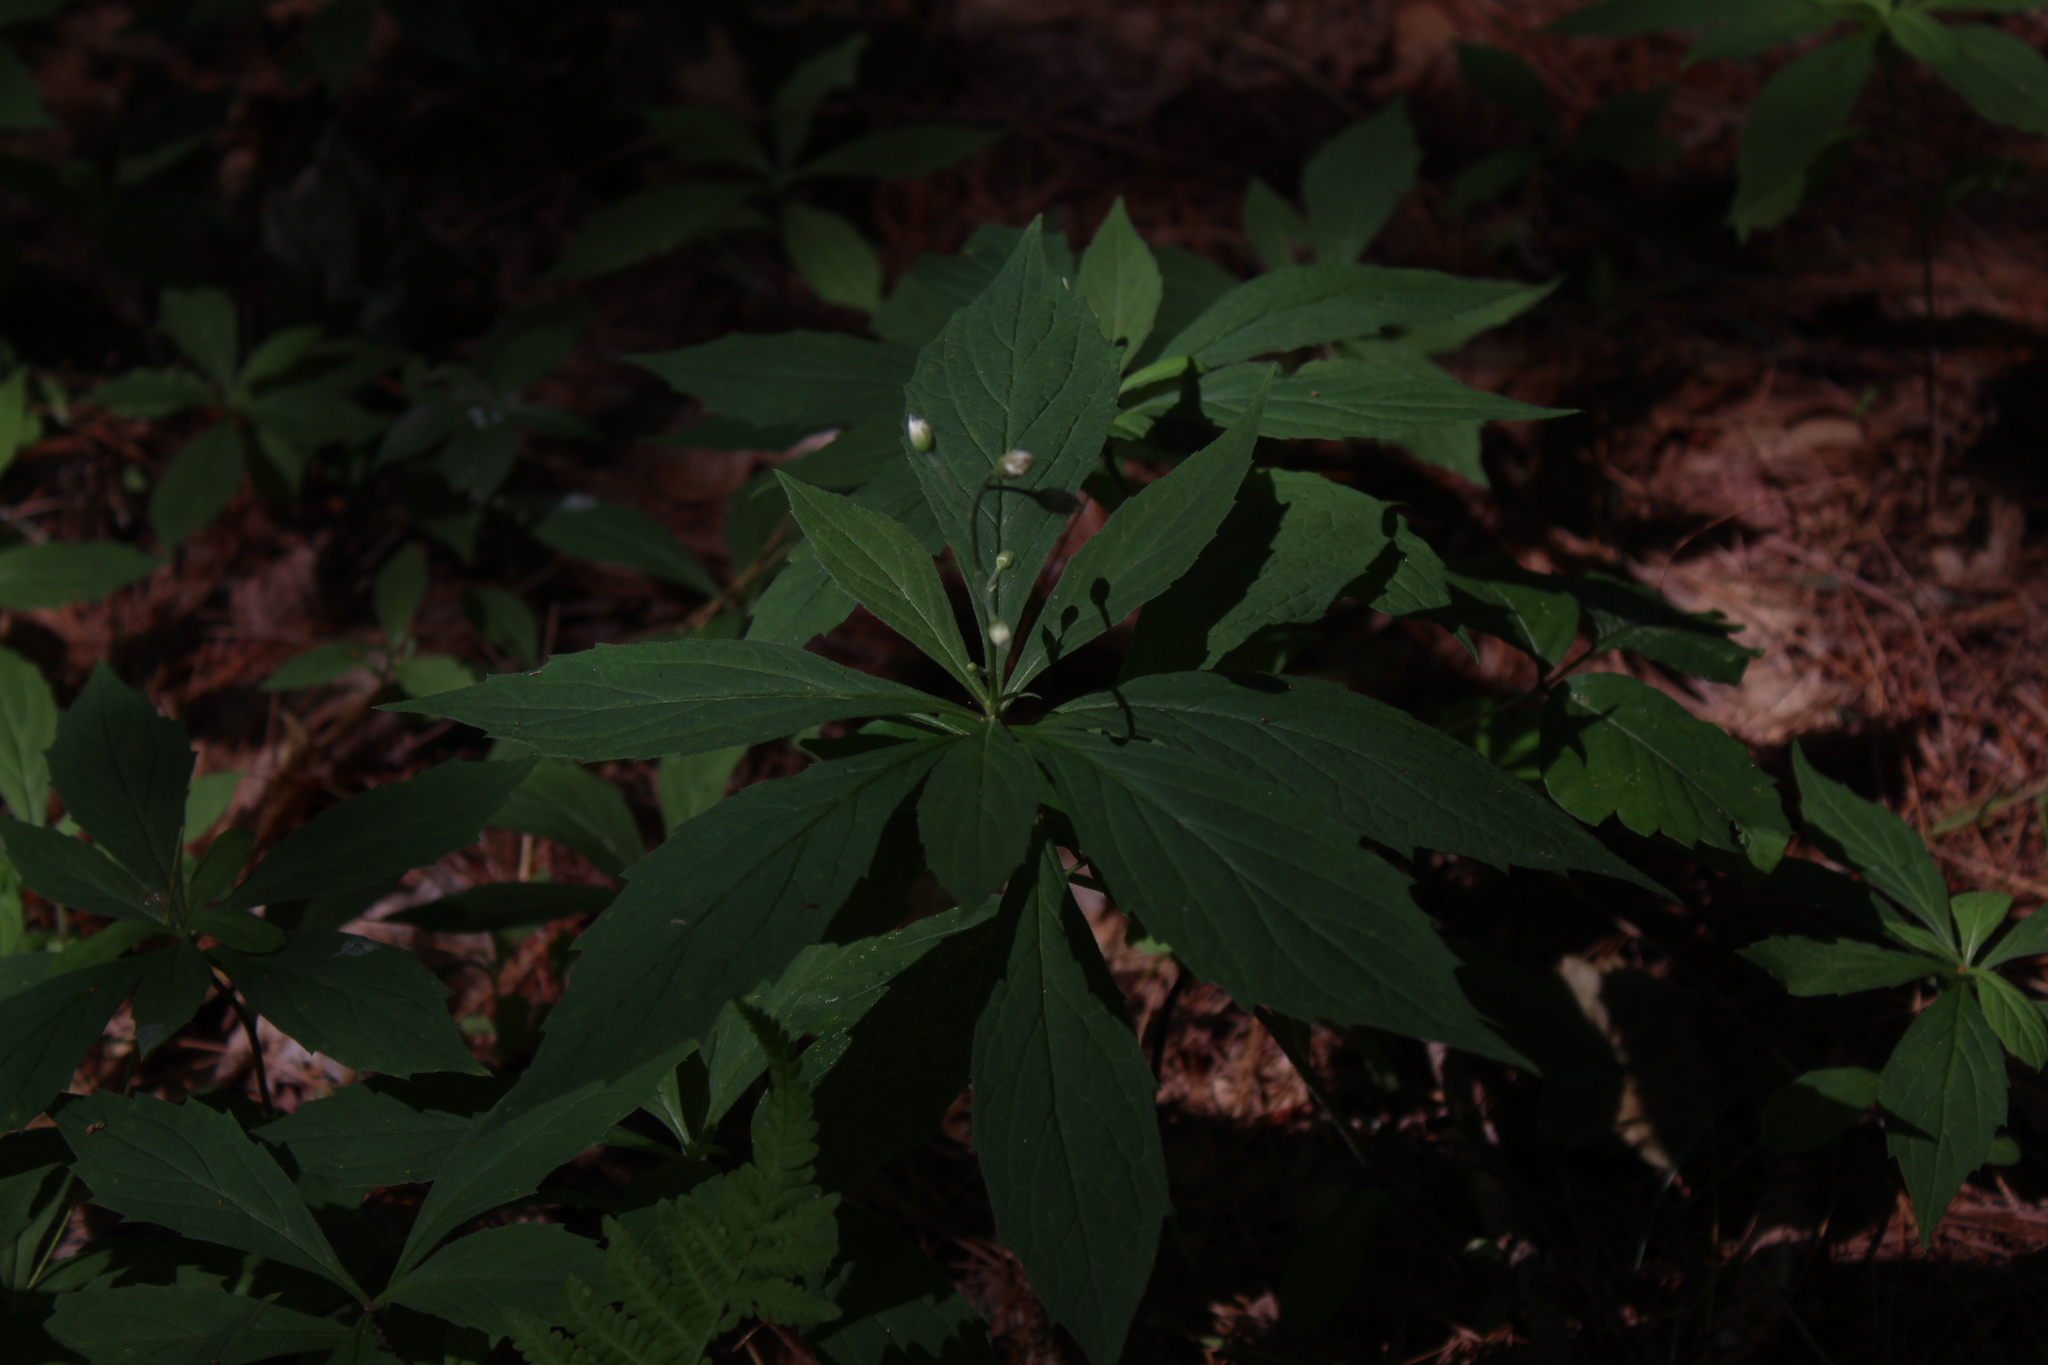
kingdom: Plantae
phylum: Tracheophyta
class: Magnoliopsida
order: Asterales
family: Asteraceae
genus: Oclemena
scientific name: Oclemena acuminata
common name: Mountain aster
